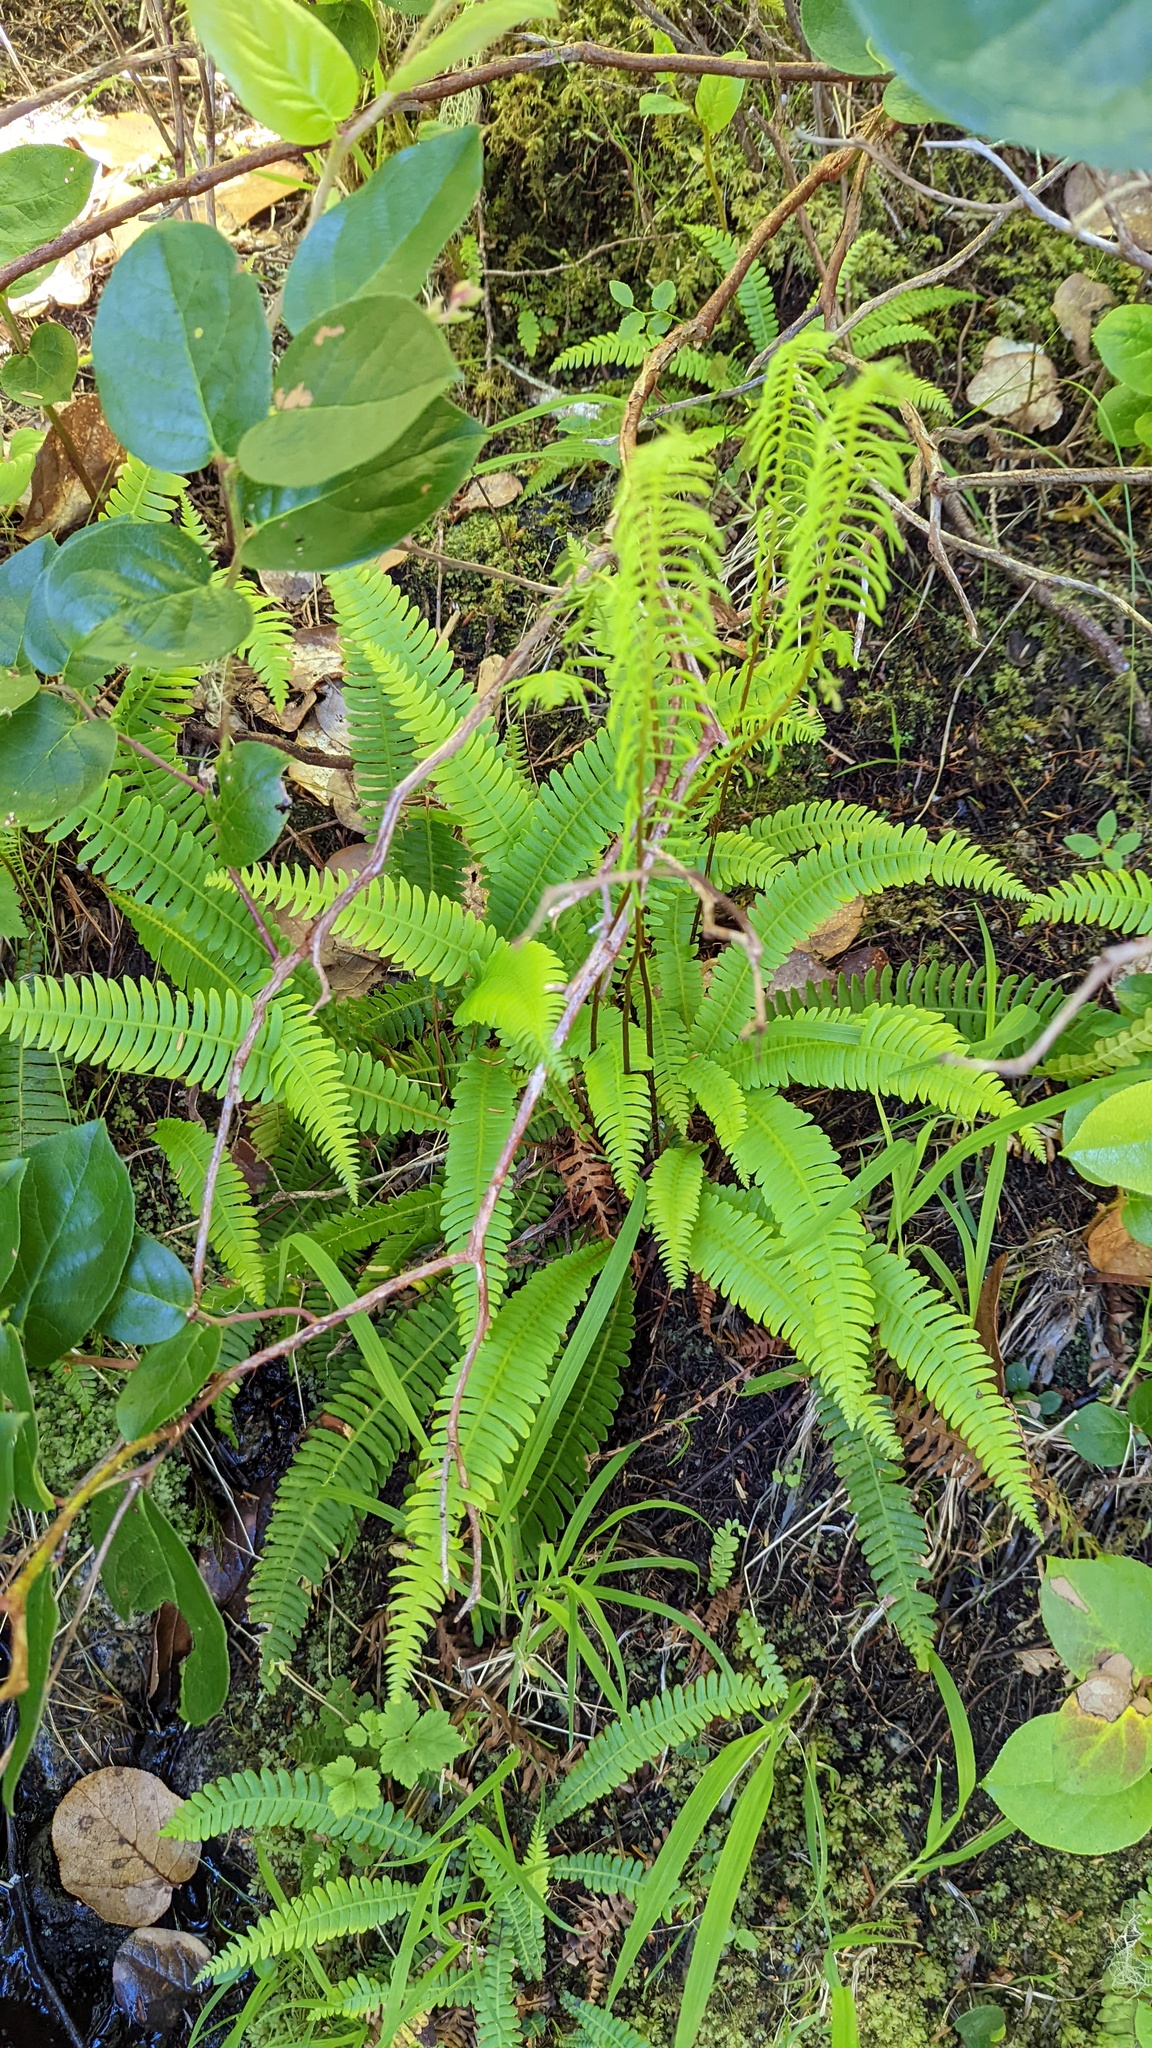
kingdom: Plantae
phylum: Tracheophyta
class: Polypodiopsida
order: Polypodiales
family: Blechnaceae
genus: Struthiopteris
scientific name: Struthiopteris spicant
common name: Deer fern
